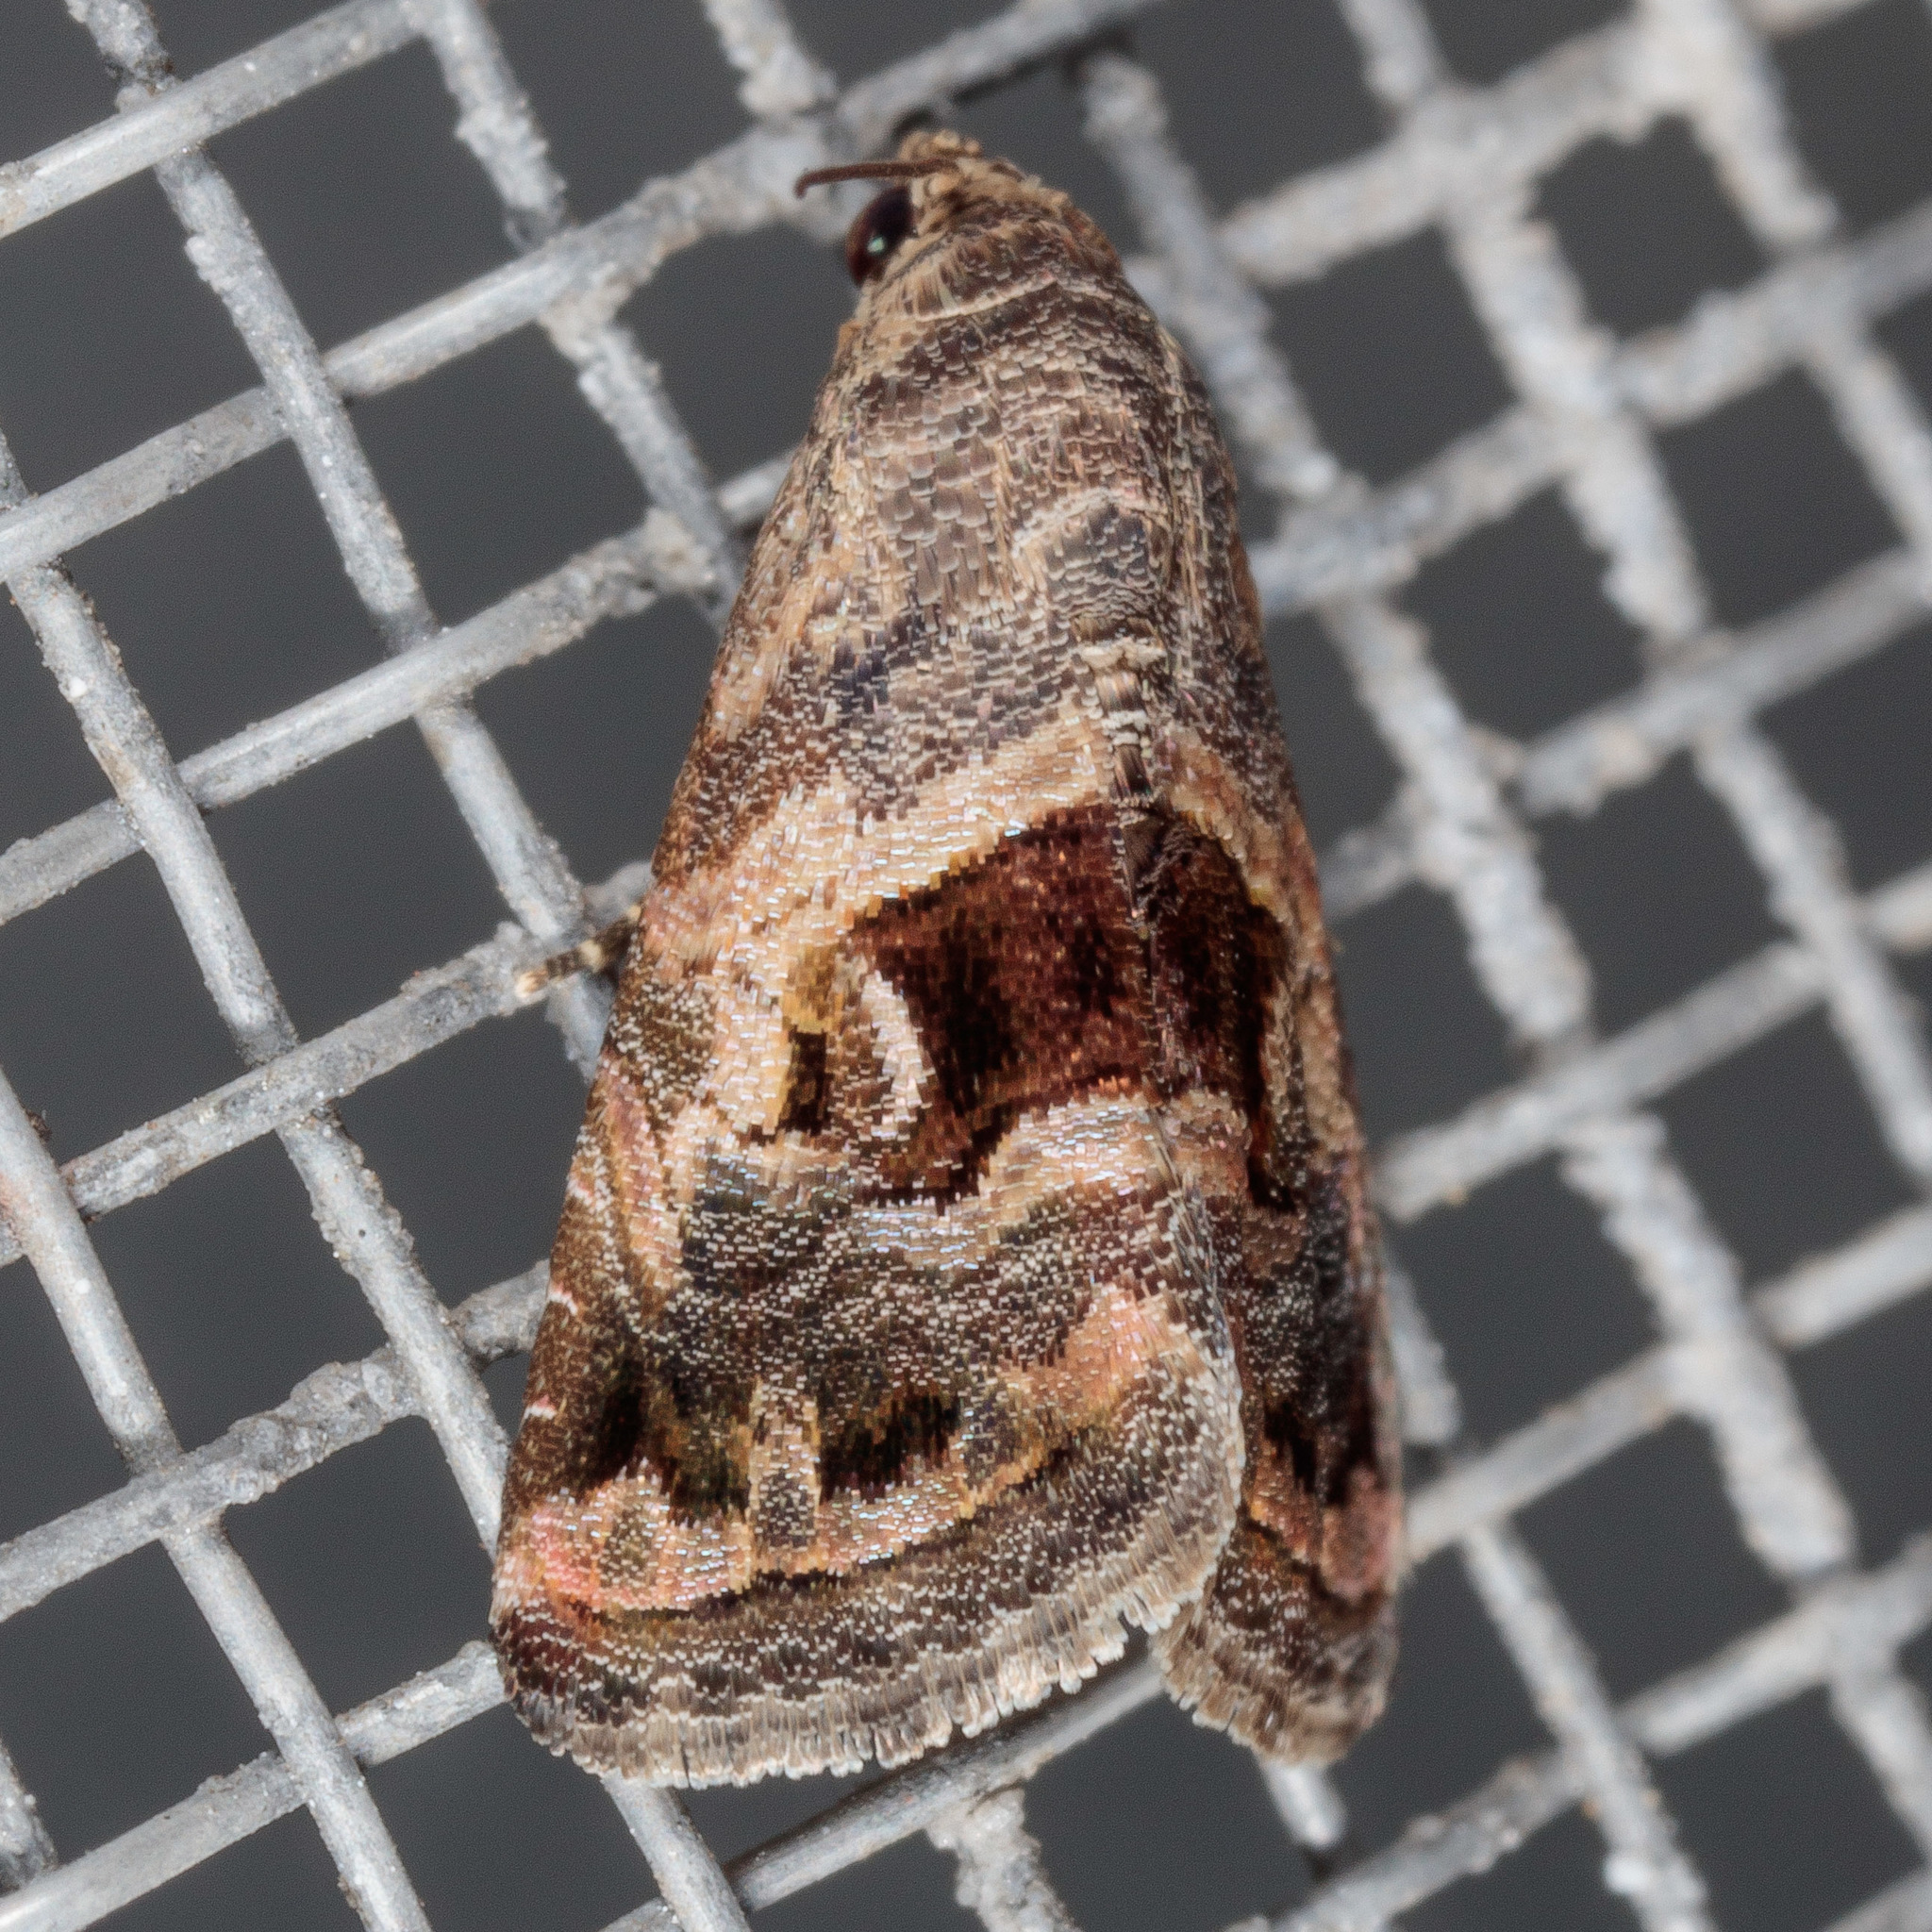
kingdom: Animalia
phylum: Arthropoda
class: Insecta
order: Lepidoptera
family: Noctuidae
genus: Tripudia
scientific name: Tripudia quadrifera
